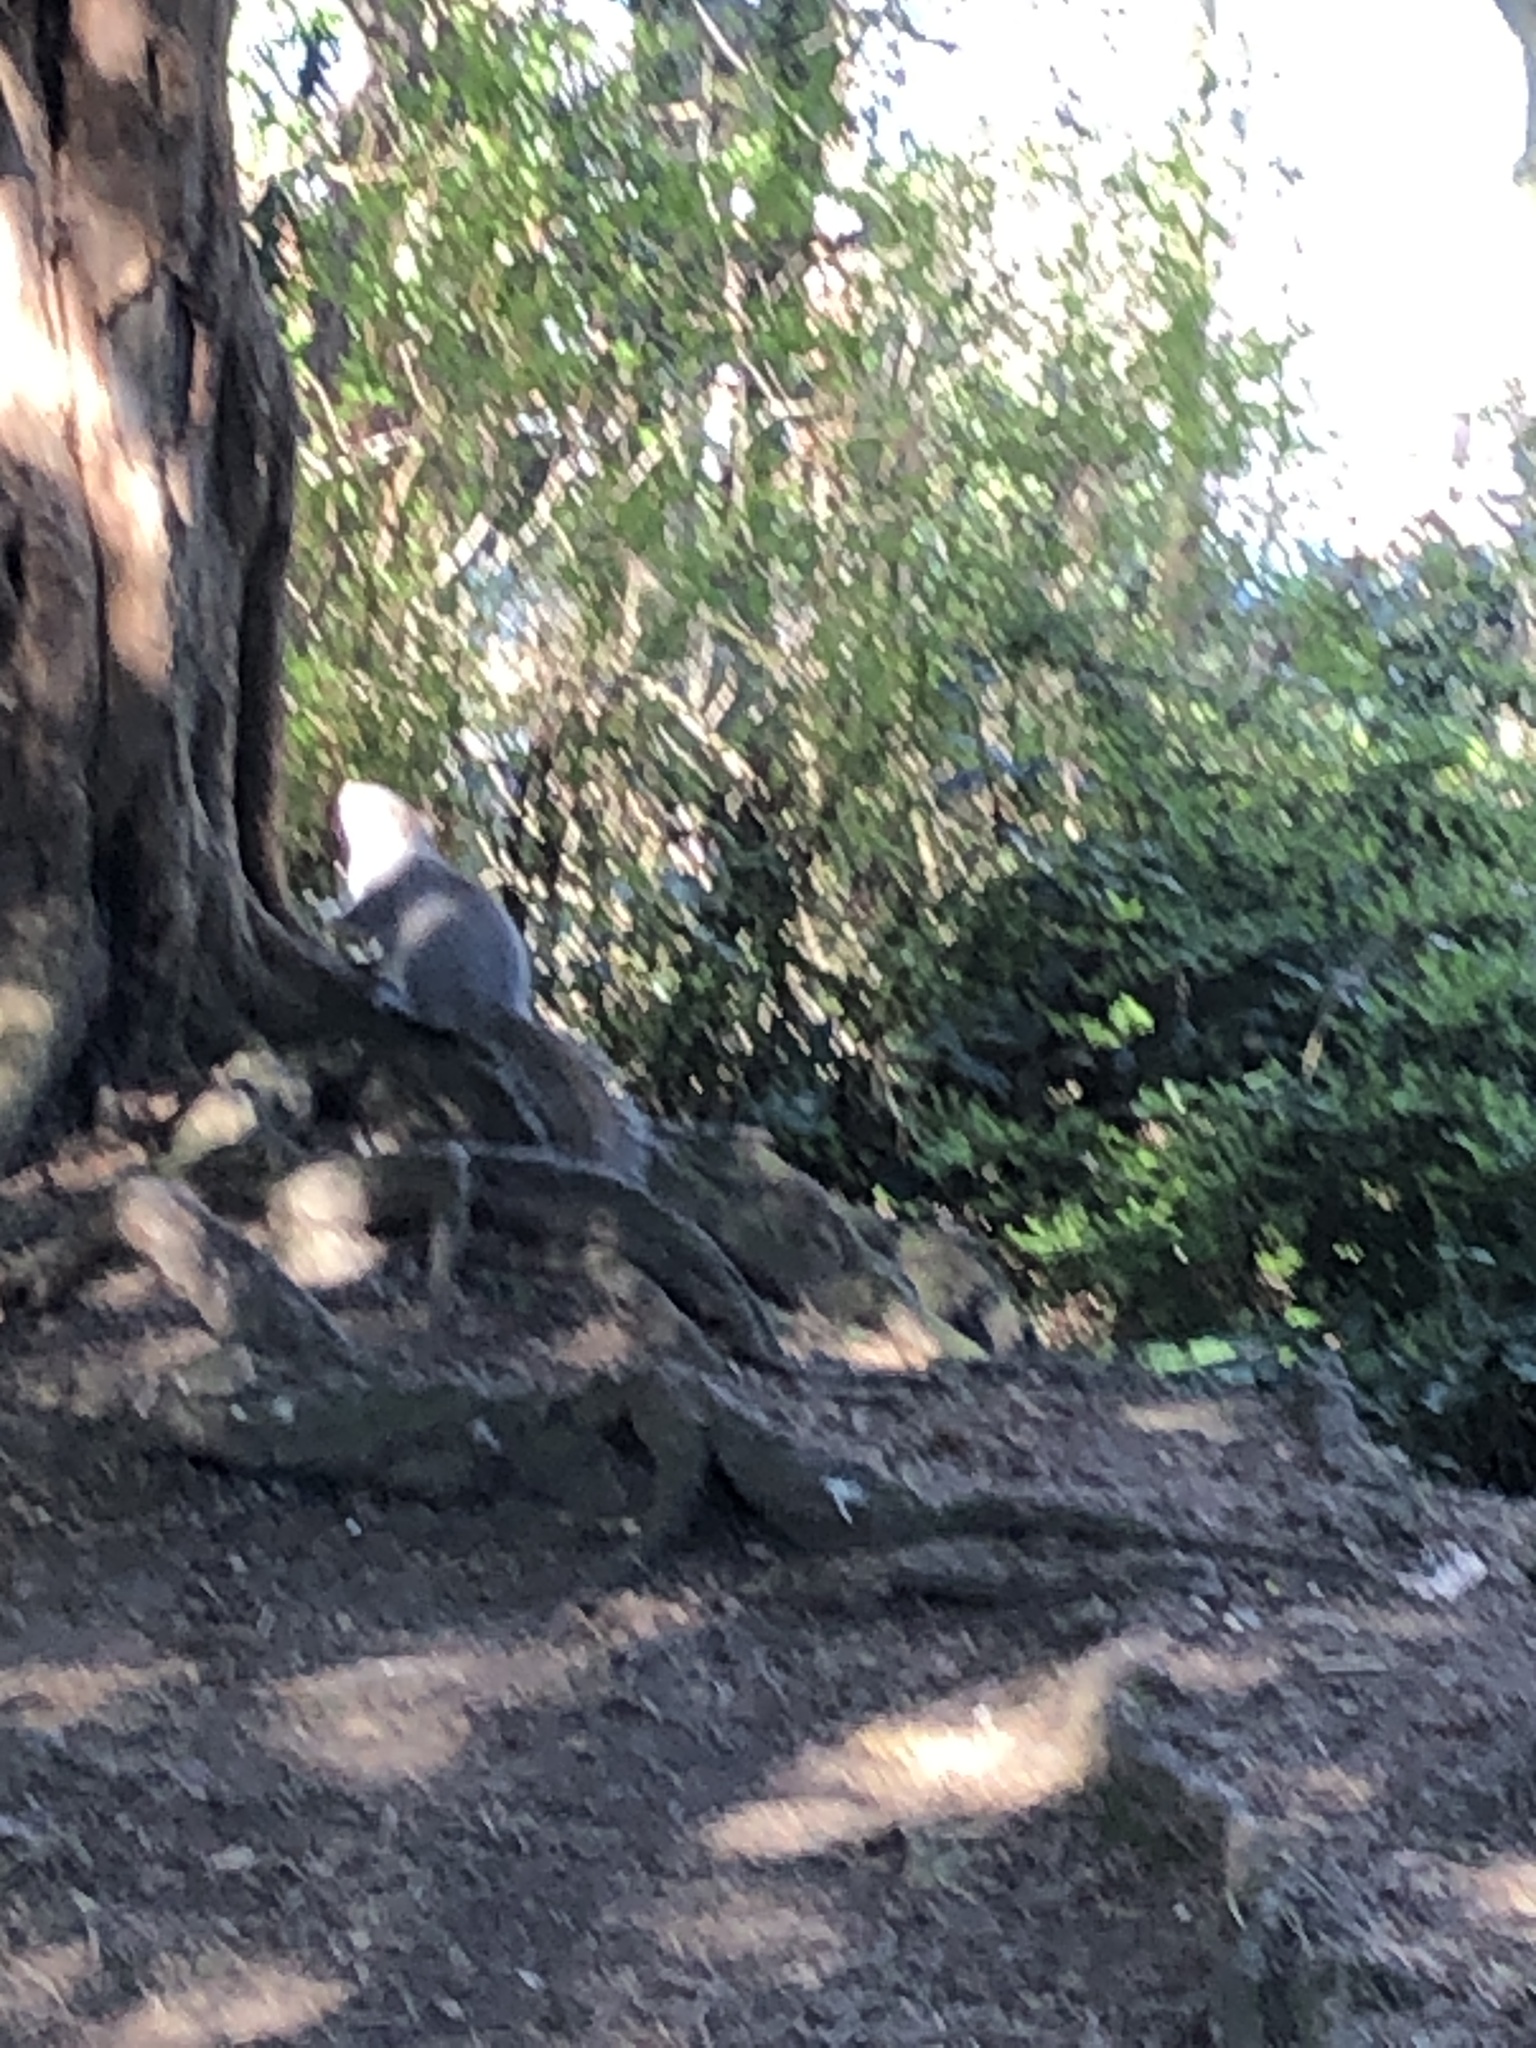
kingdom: Animalia
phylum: Chordata
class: Mammalia
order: Rodentia
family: Sciuridae
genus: Sciurus
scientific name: Sciurus carolinensis
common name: Eastern gray squirrel
